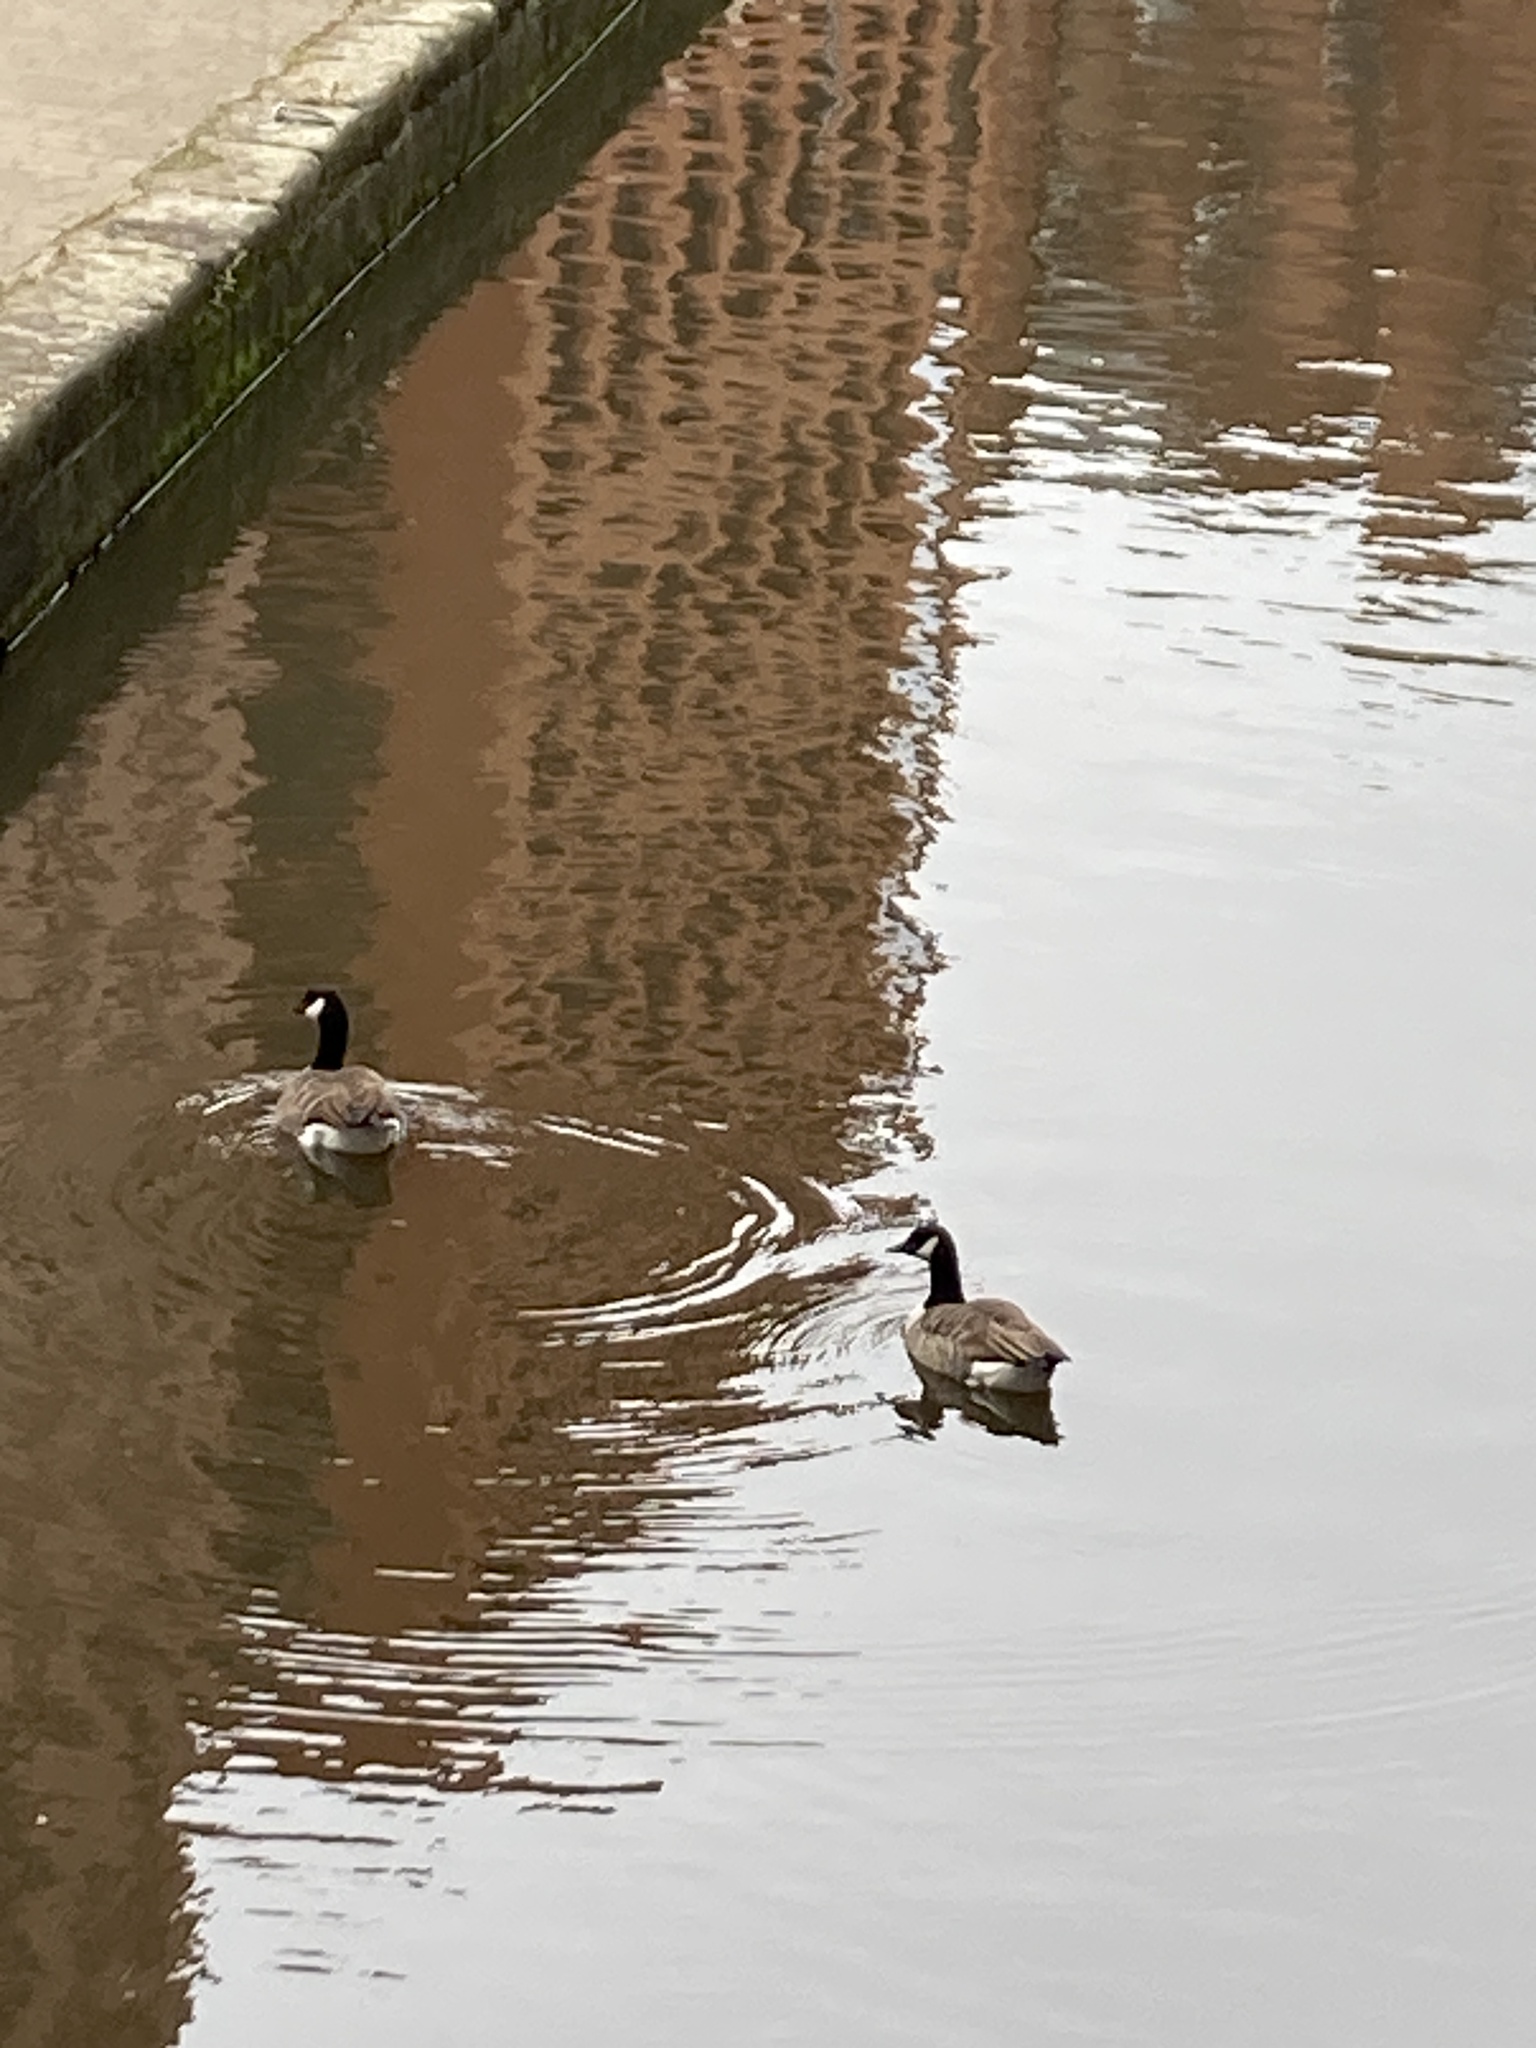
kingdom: Animalia
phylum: Chordata
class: Aves
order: Anseriformes
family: Anatidae
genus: Branta
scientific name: Branta canadensis
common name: Canada goose
